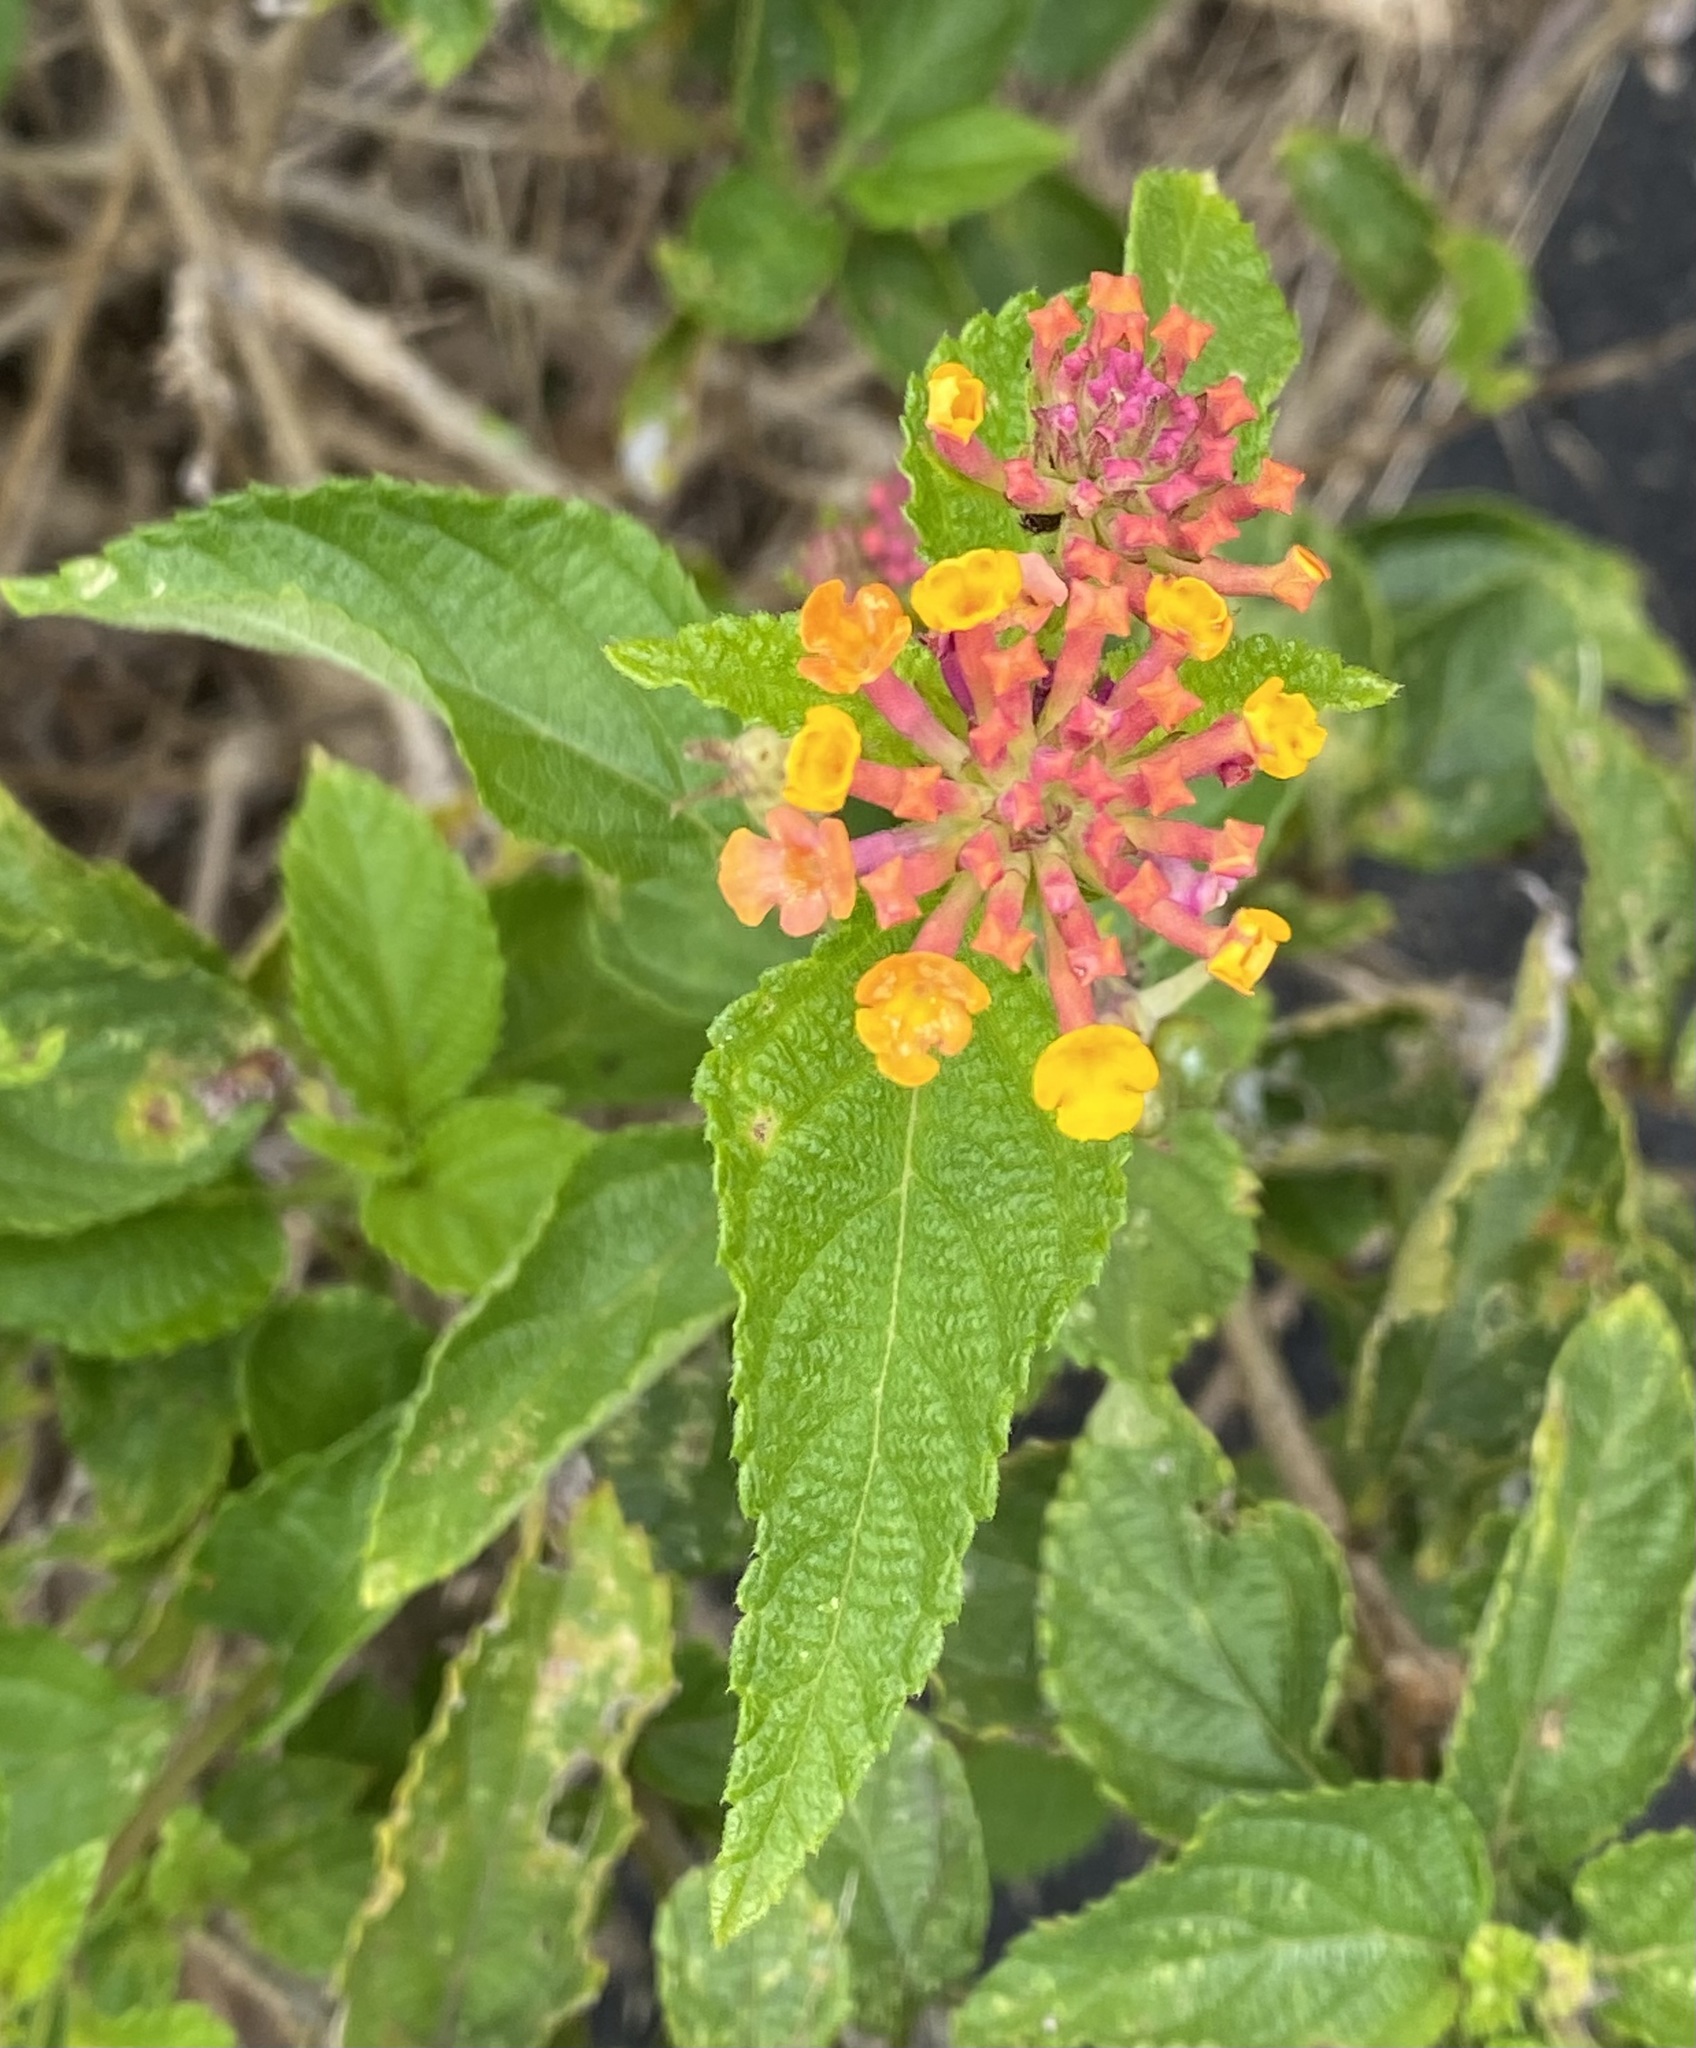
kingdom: Plantae
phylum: Tracheophyta
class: Magnoliopsida
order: Lamiales
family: Verbenaceae
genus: Lantana
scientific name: Lantana camara
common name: Lantana
